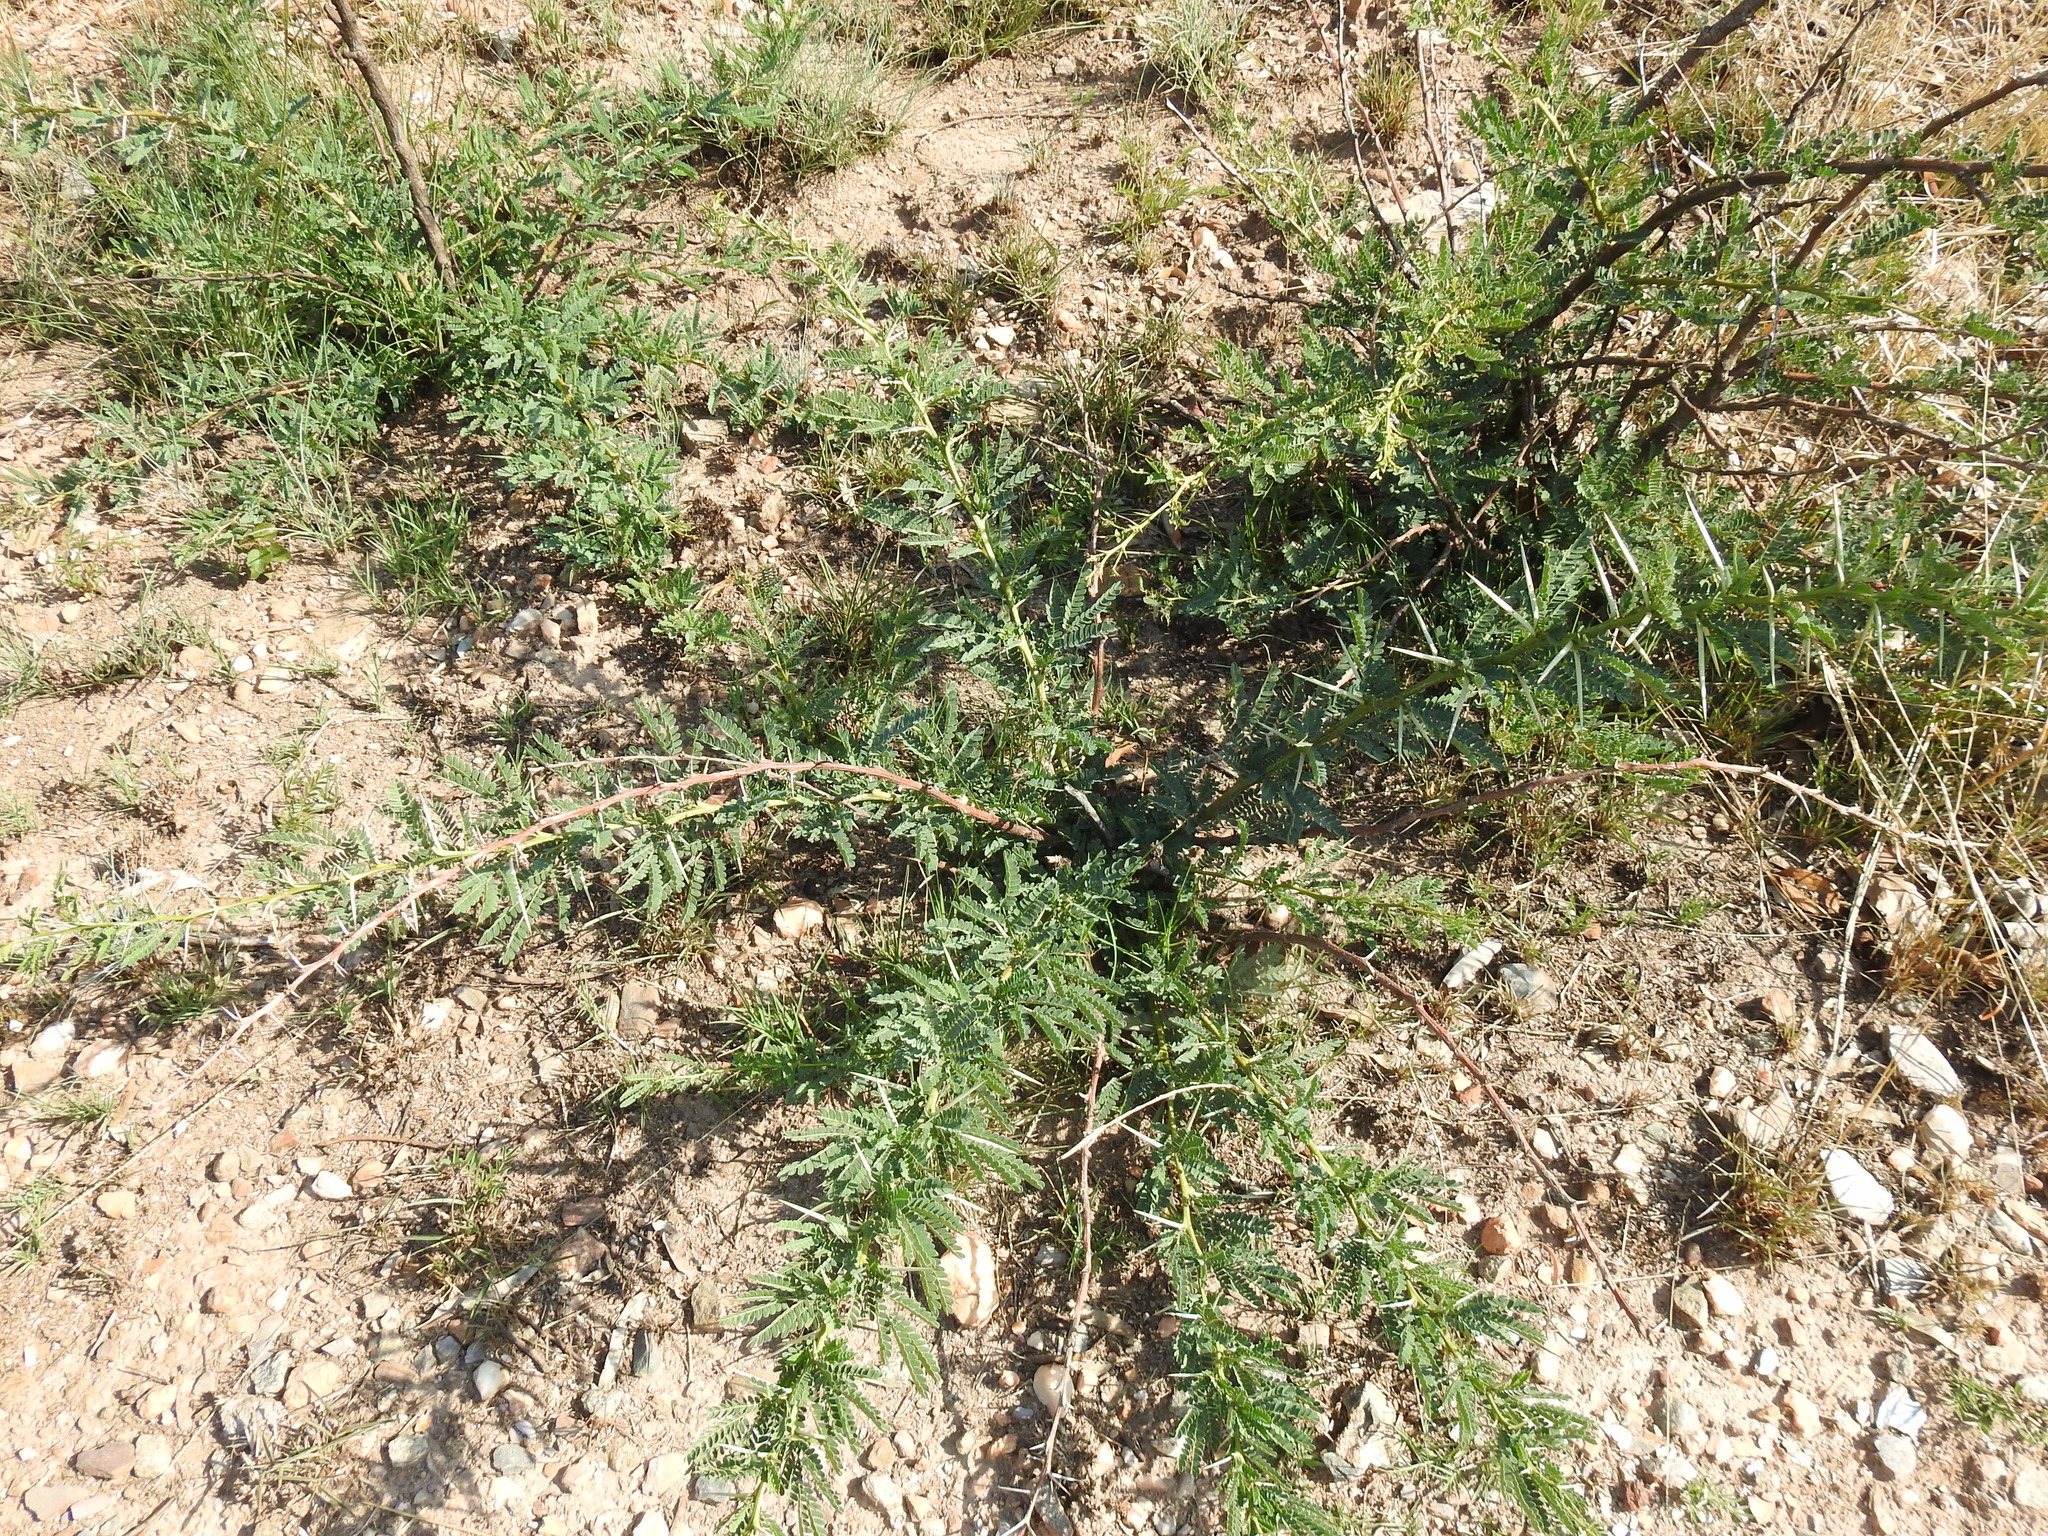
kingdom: Plantae
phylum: Tracheophyta
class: Magnoliopsida
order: Fabales
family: Fabaceae
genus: Vachellia
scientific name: Vachellia karroo
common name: Sweet thorn
